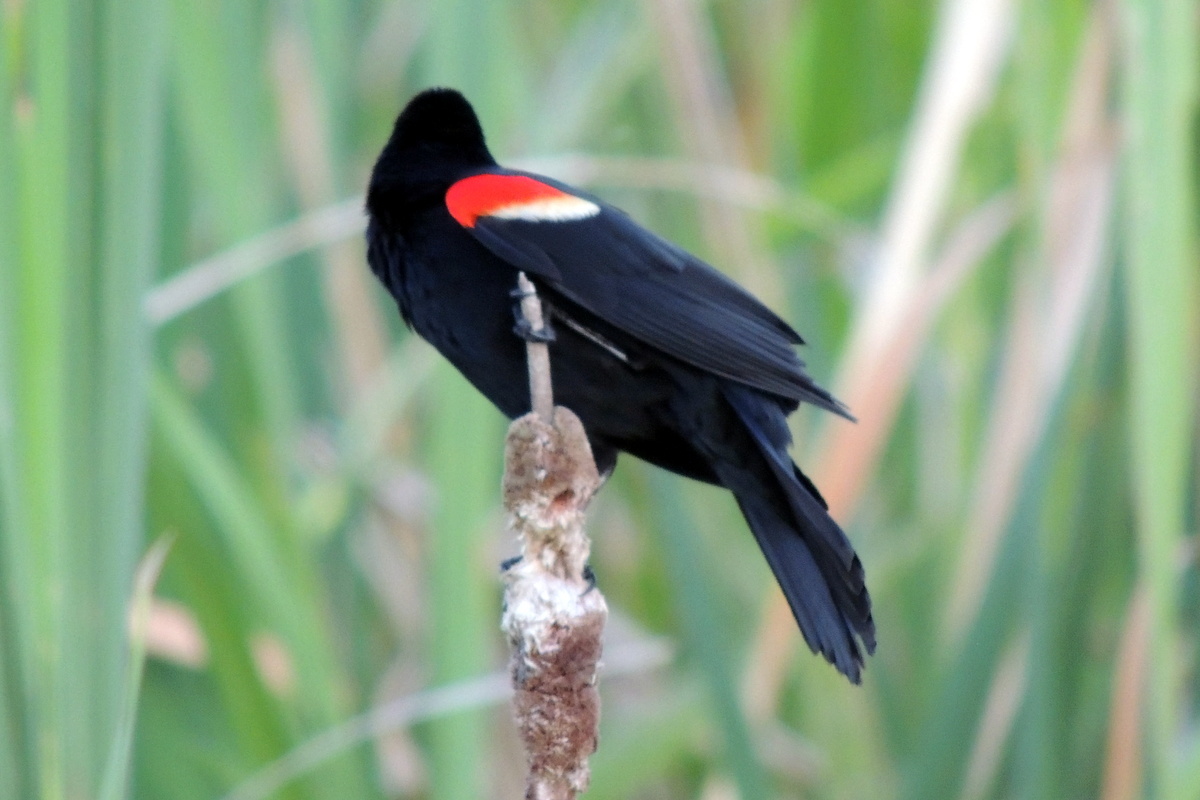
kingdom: Animalia
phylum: Chordata
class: Aves
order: Passeriformes
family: Icteridae
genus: Agelaius
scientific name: Agelaius phoeniceus
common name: Red-winged blackbird
